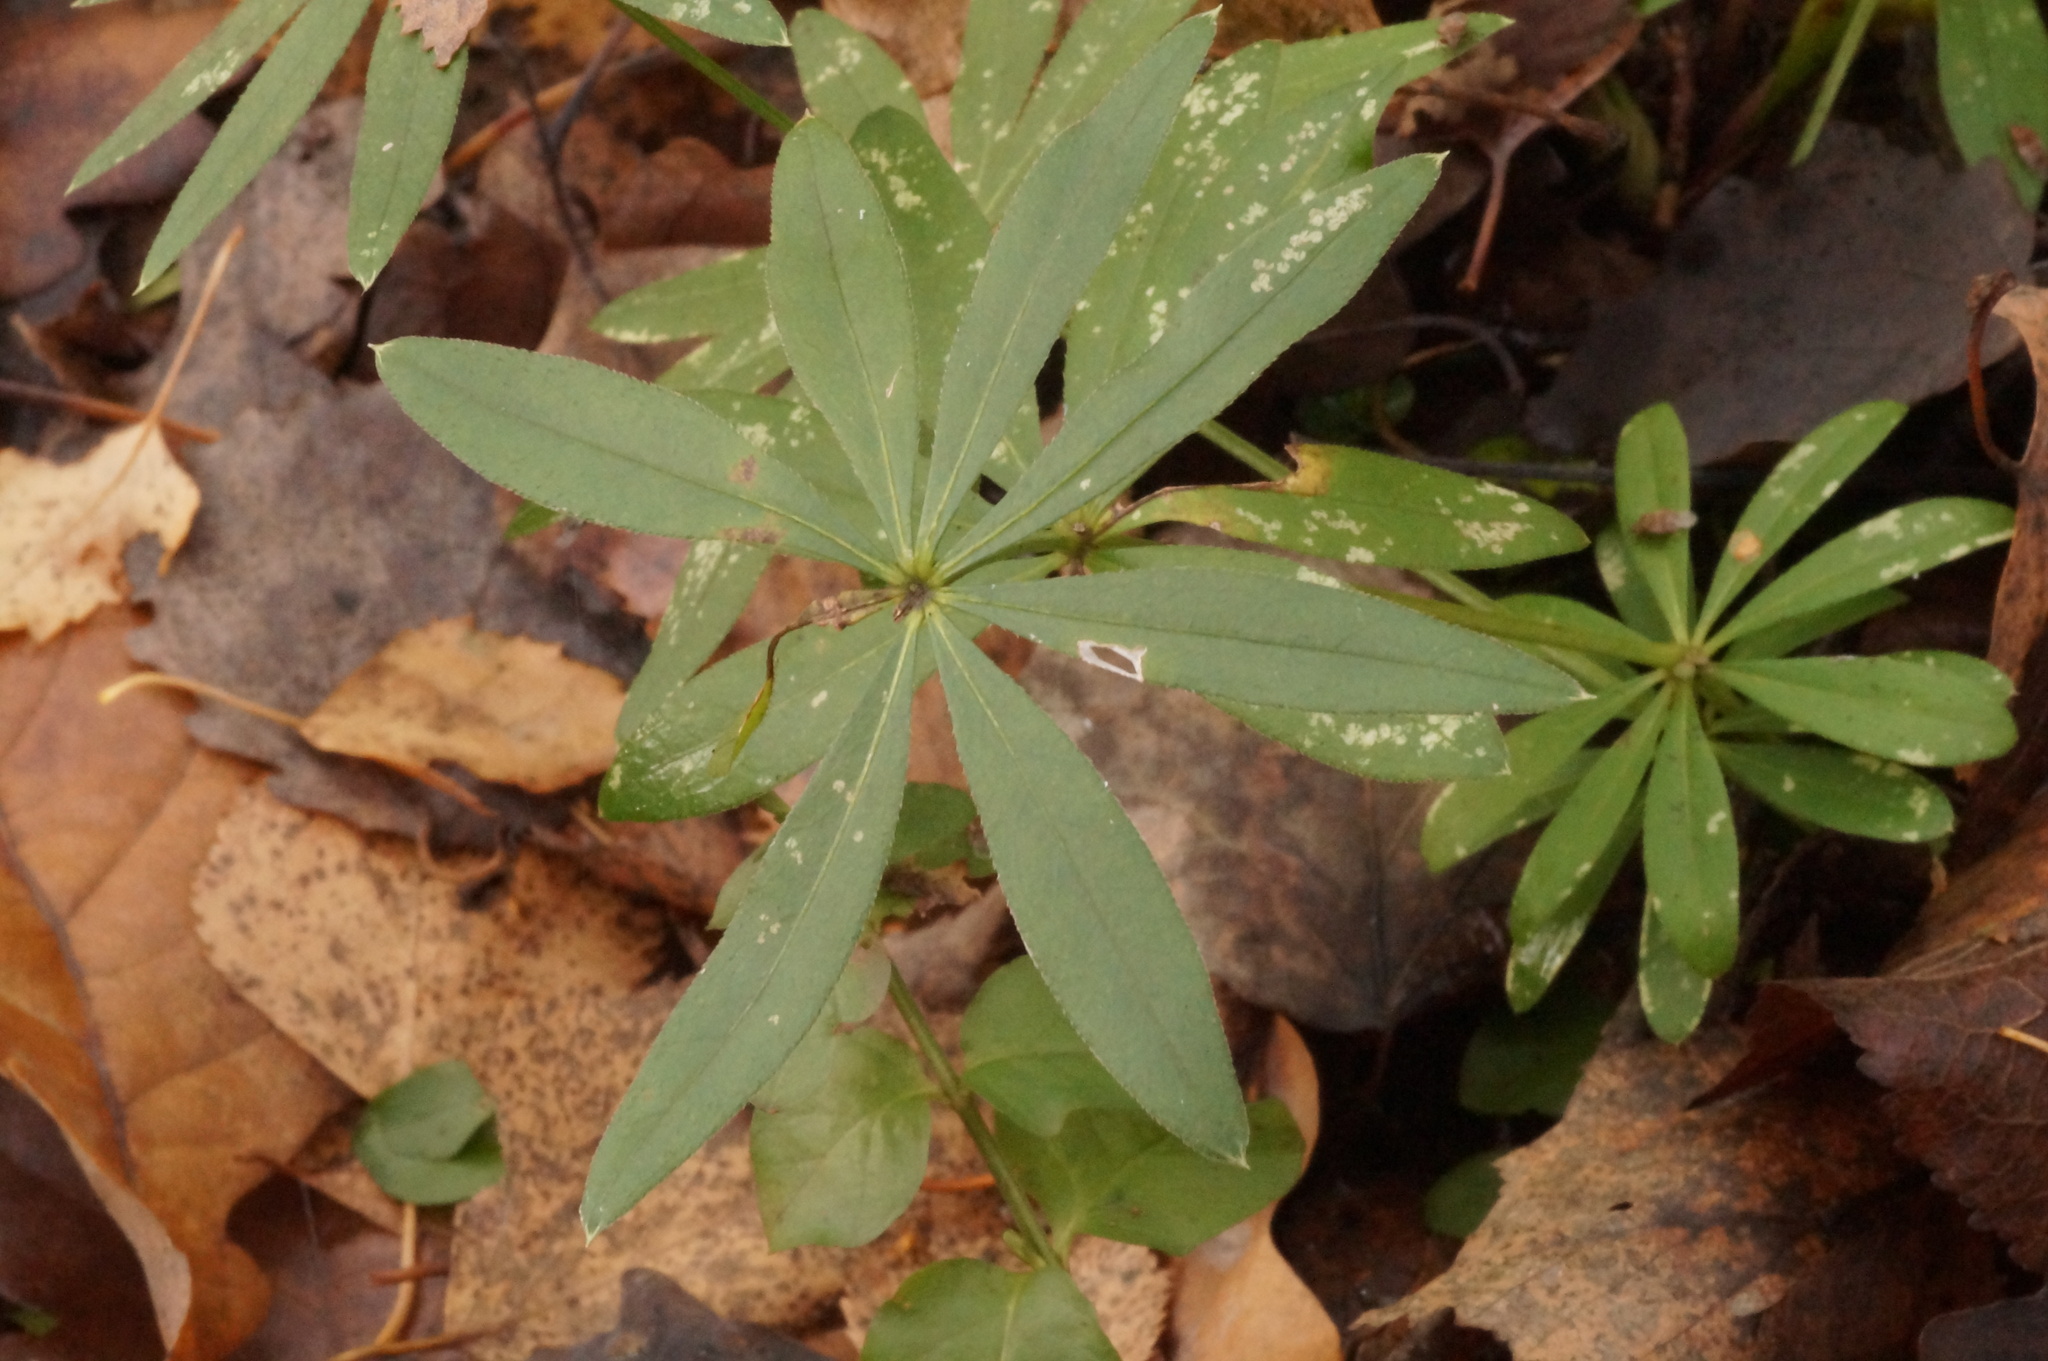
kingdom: Plantae
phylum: Tracheophyta
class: Magnoliopsida
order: Gentianales
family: Rubiaceae
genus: Galium
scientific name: Galium odoratum
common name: Sweet woodruff
